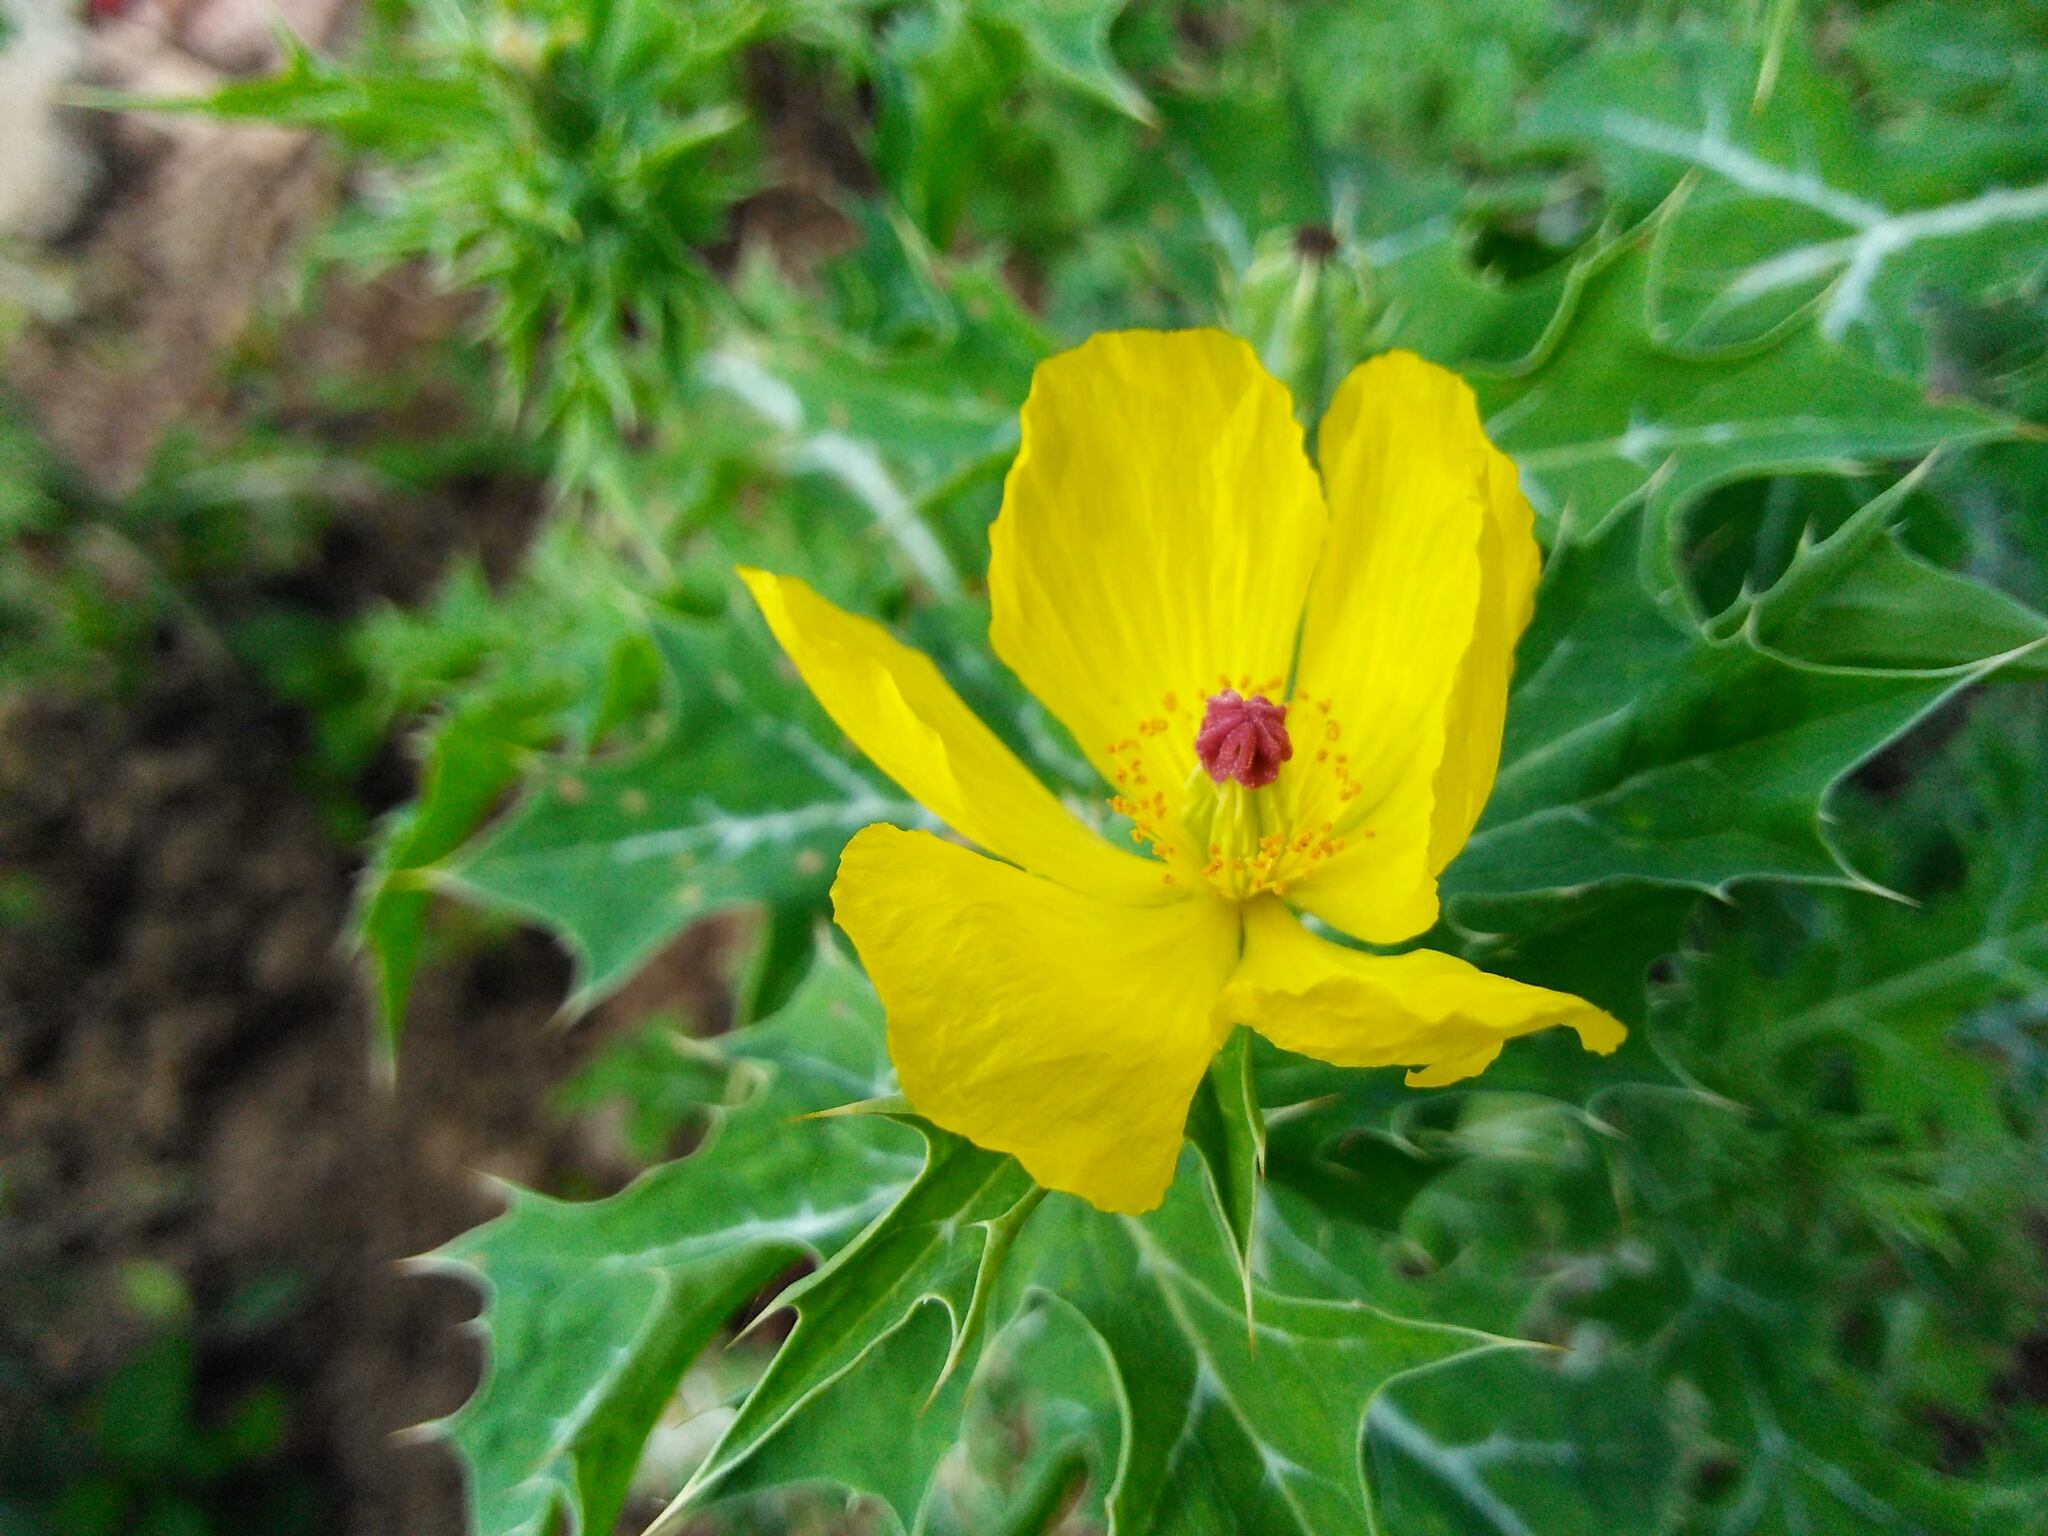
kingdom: Plantae
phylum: Tracheophyta
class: Magnoliopsida
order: Ranunculales
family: Papaveraceae
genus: Argemone
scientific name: Argemone mexicana
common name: Mexican poppy
